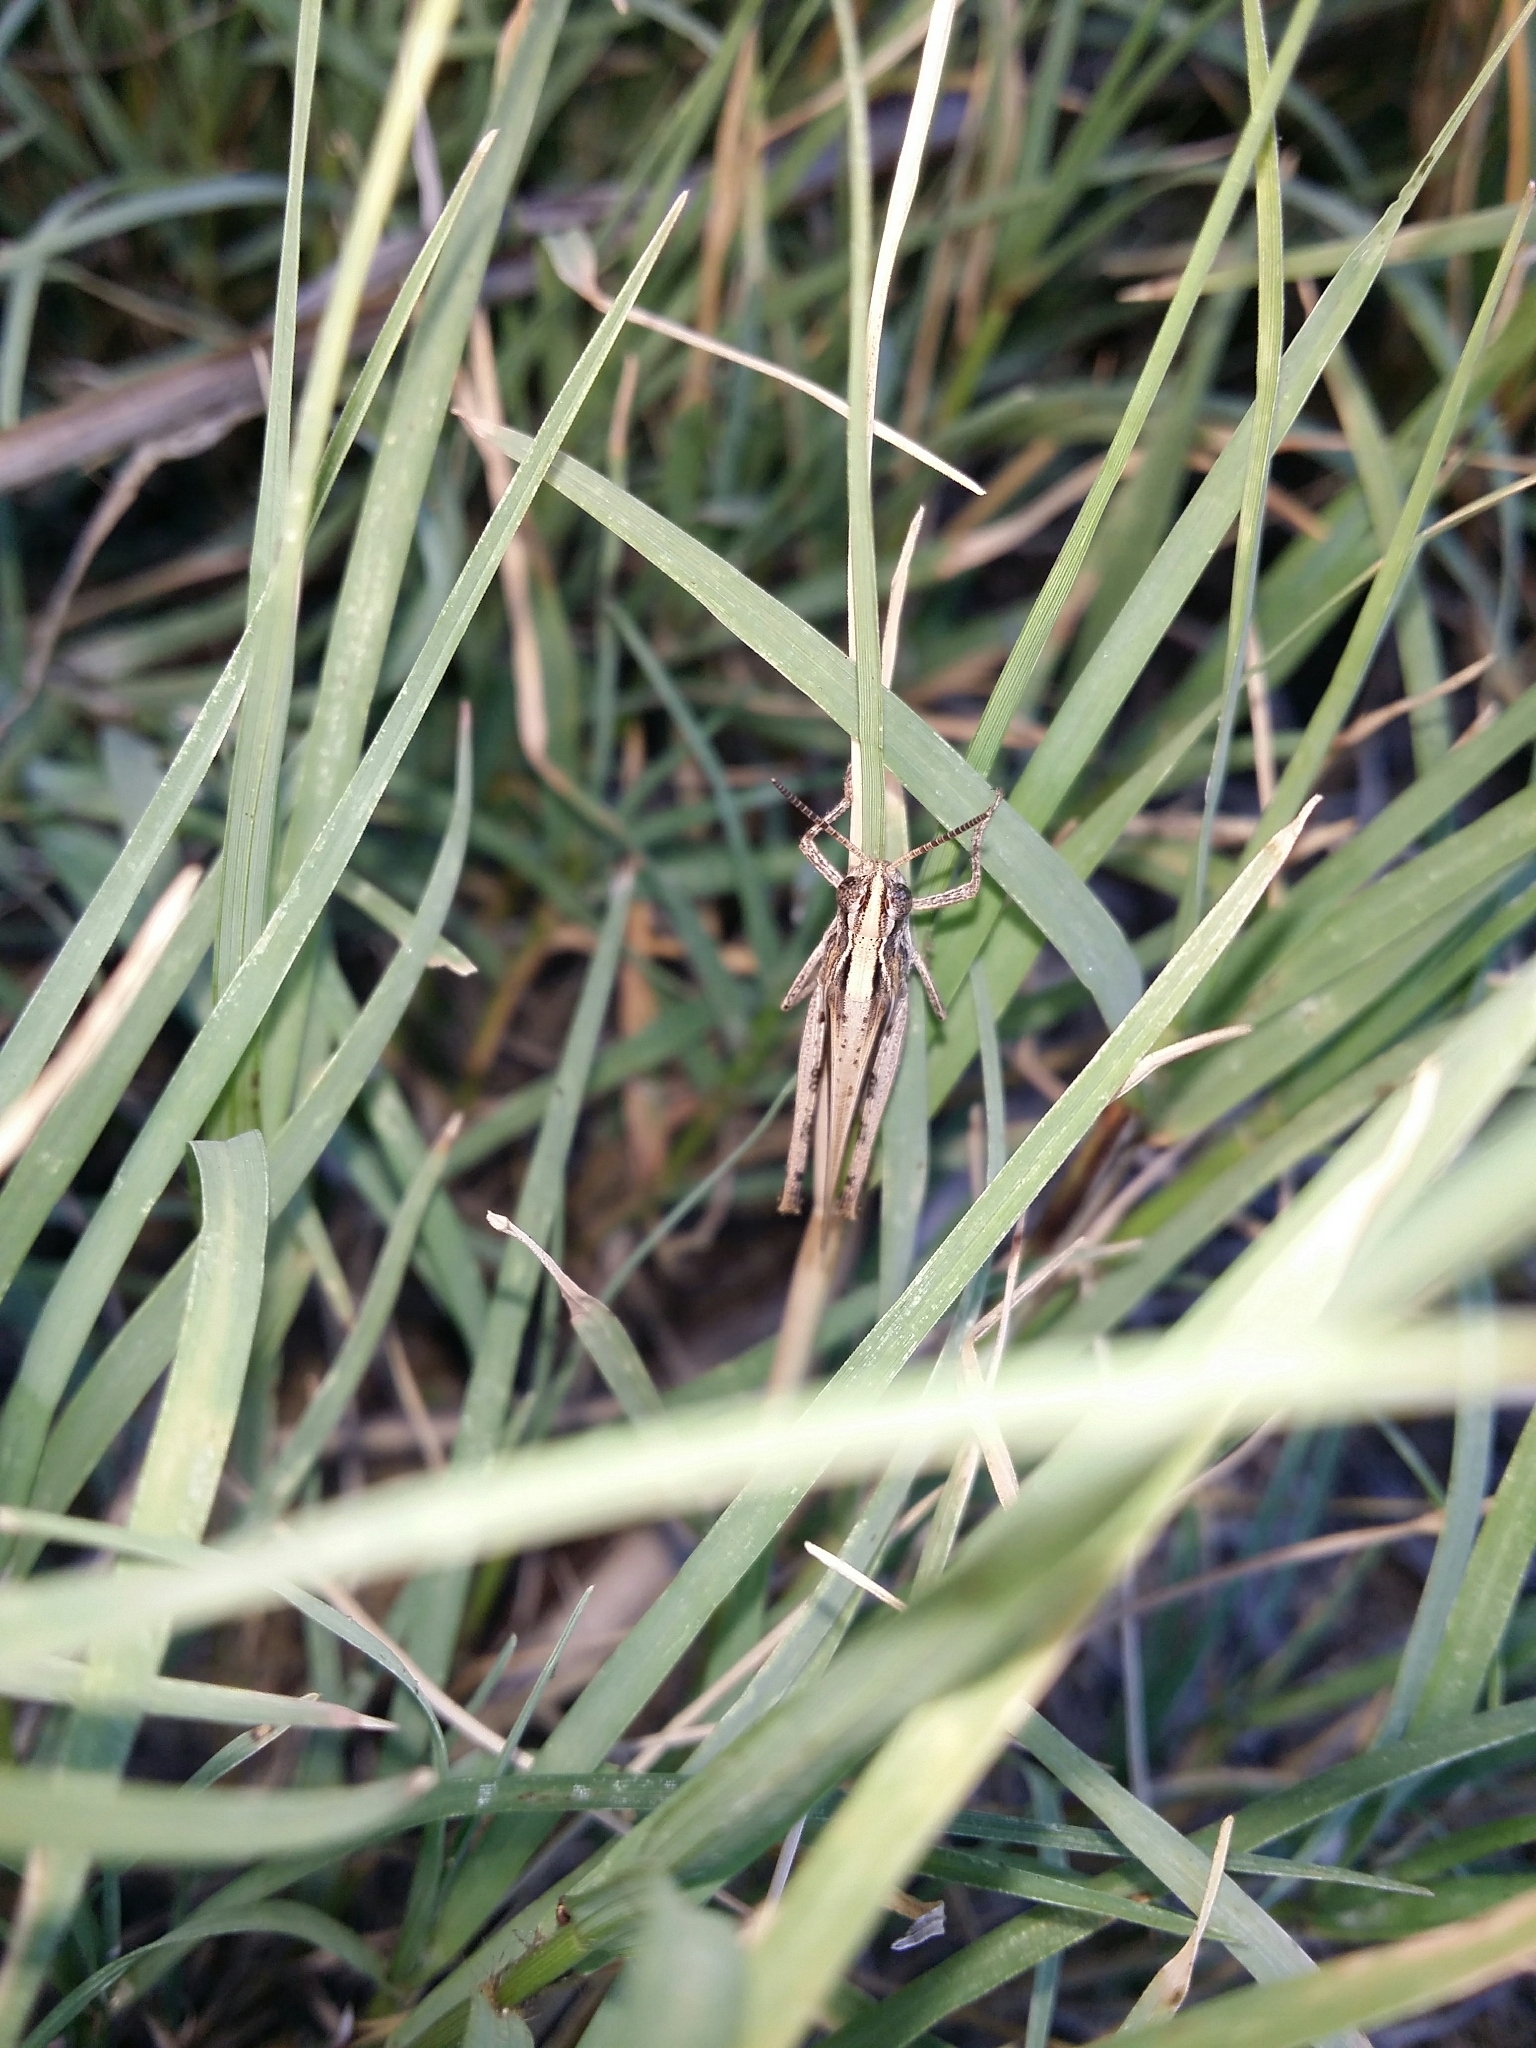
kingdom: Animalia
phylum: Arthropoda
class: Insecta
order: Orthoptera
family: Acrididae
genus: Aiolopus
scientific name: Aiolopus thalassinus
